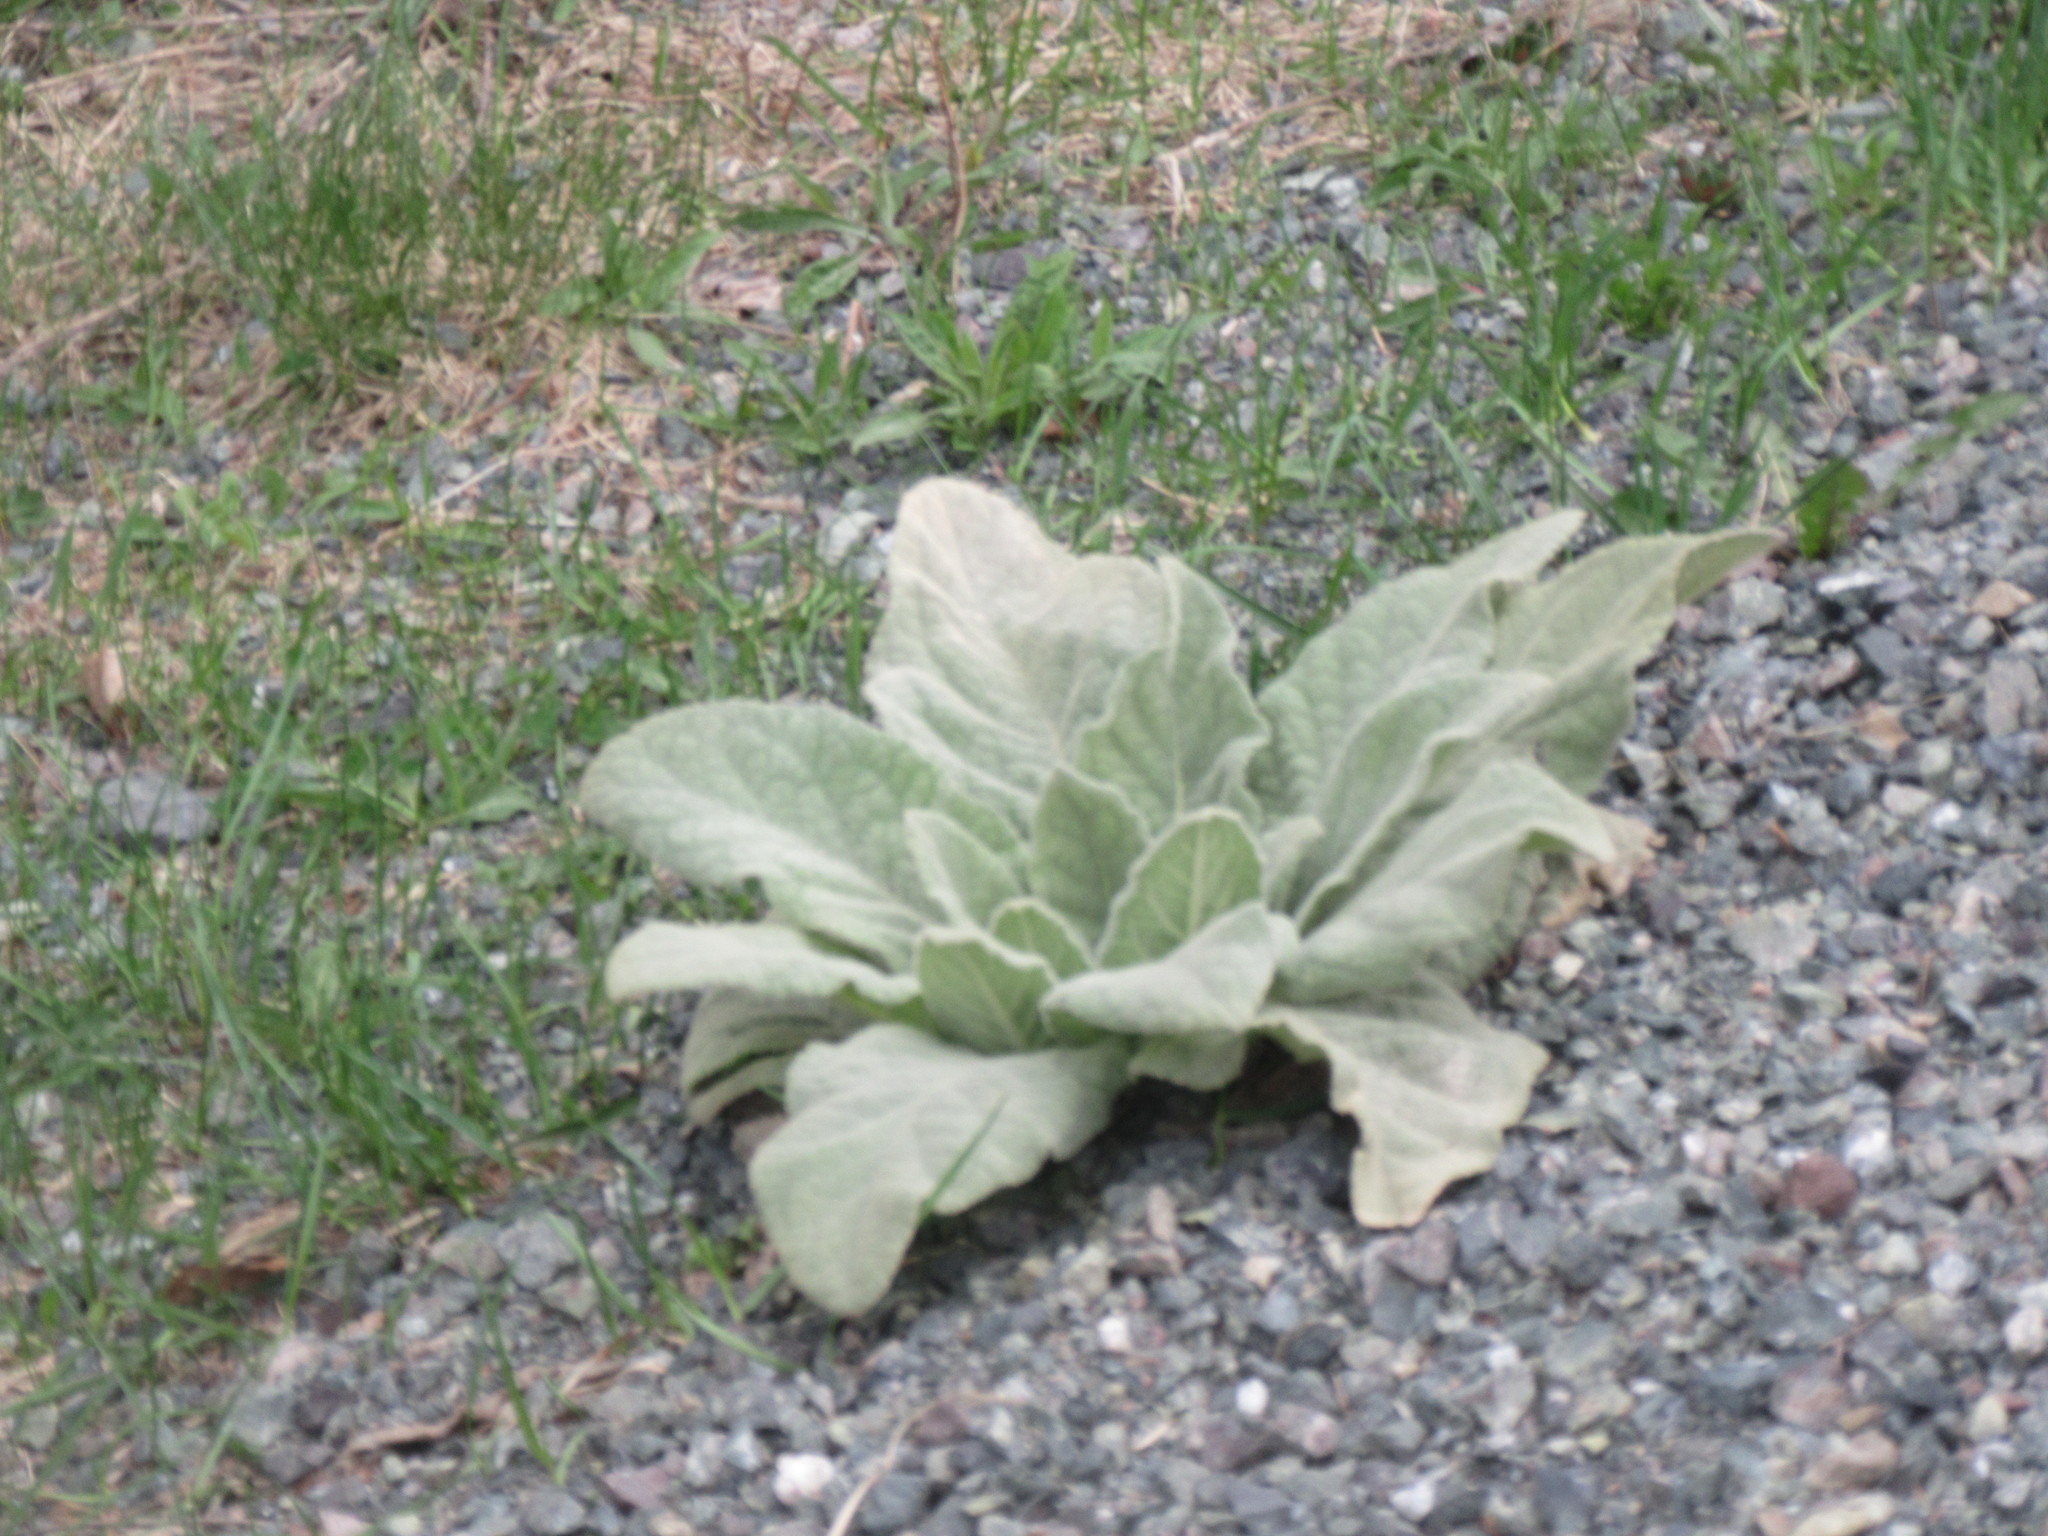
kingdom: Plantae
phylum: Tracheophyta
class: Magnoliopsida
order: Lamiales
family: Scrophulariaceae
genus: Verbascum
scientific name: Verbascum thapsus
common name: Common mullein
